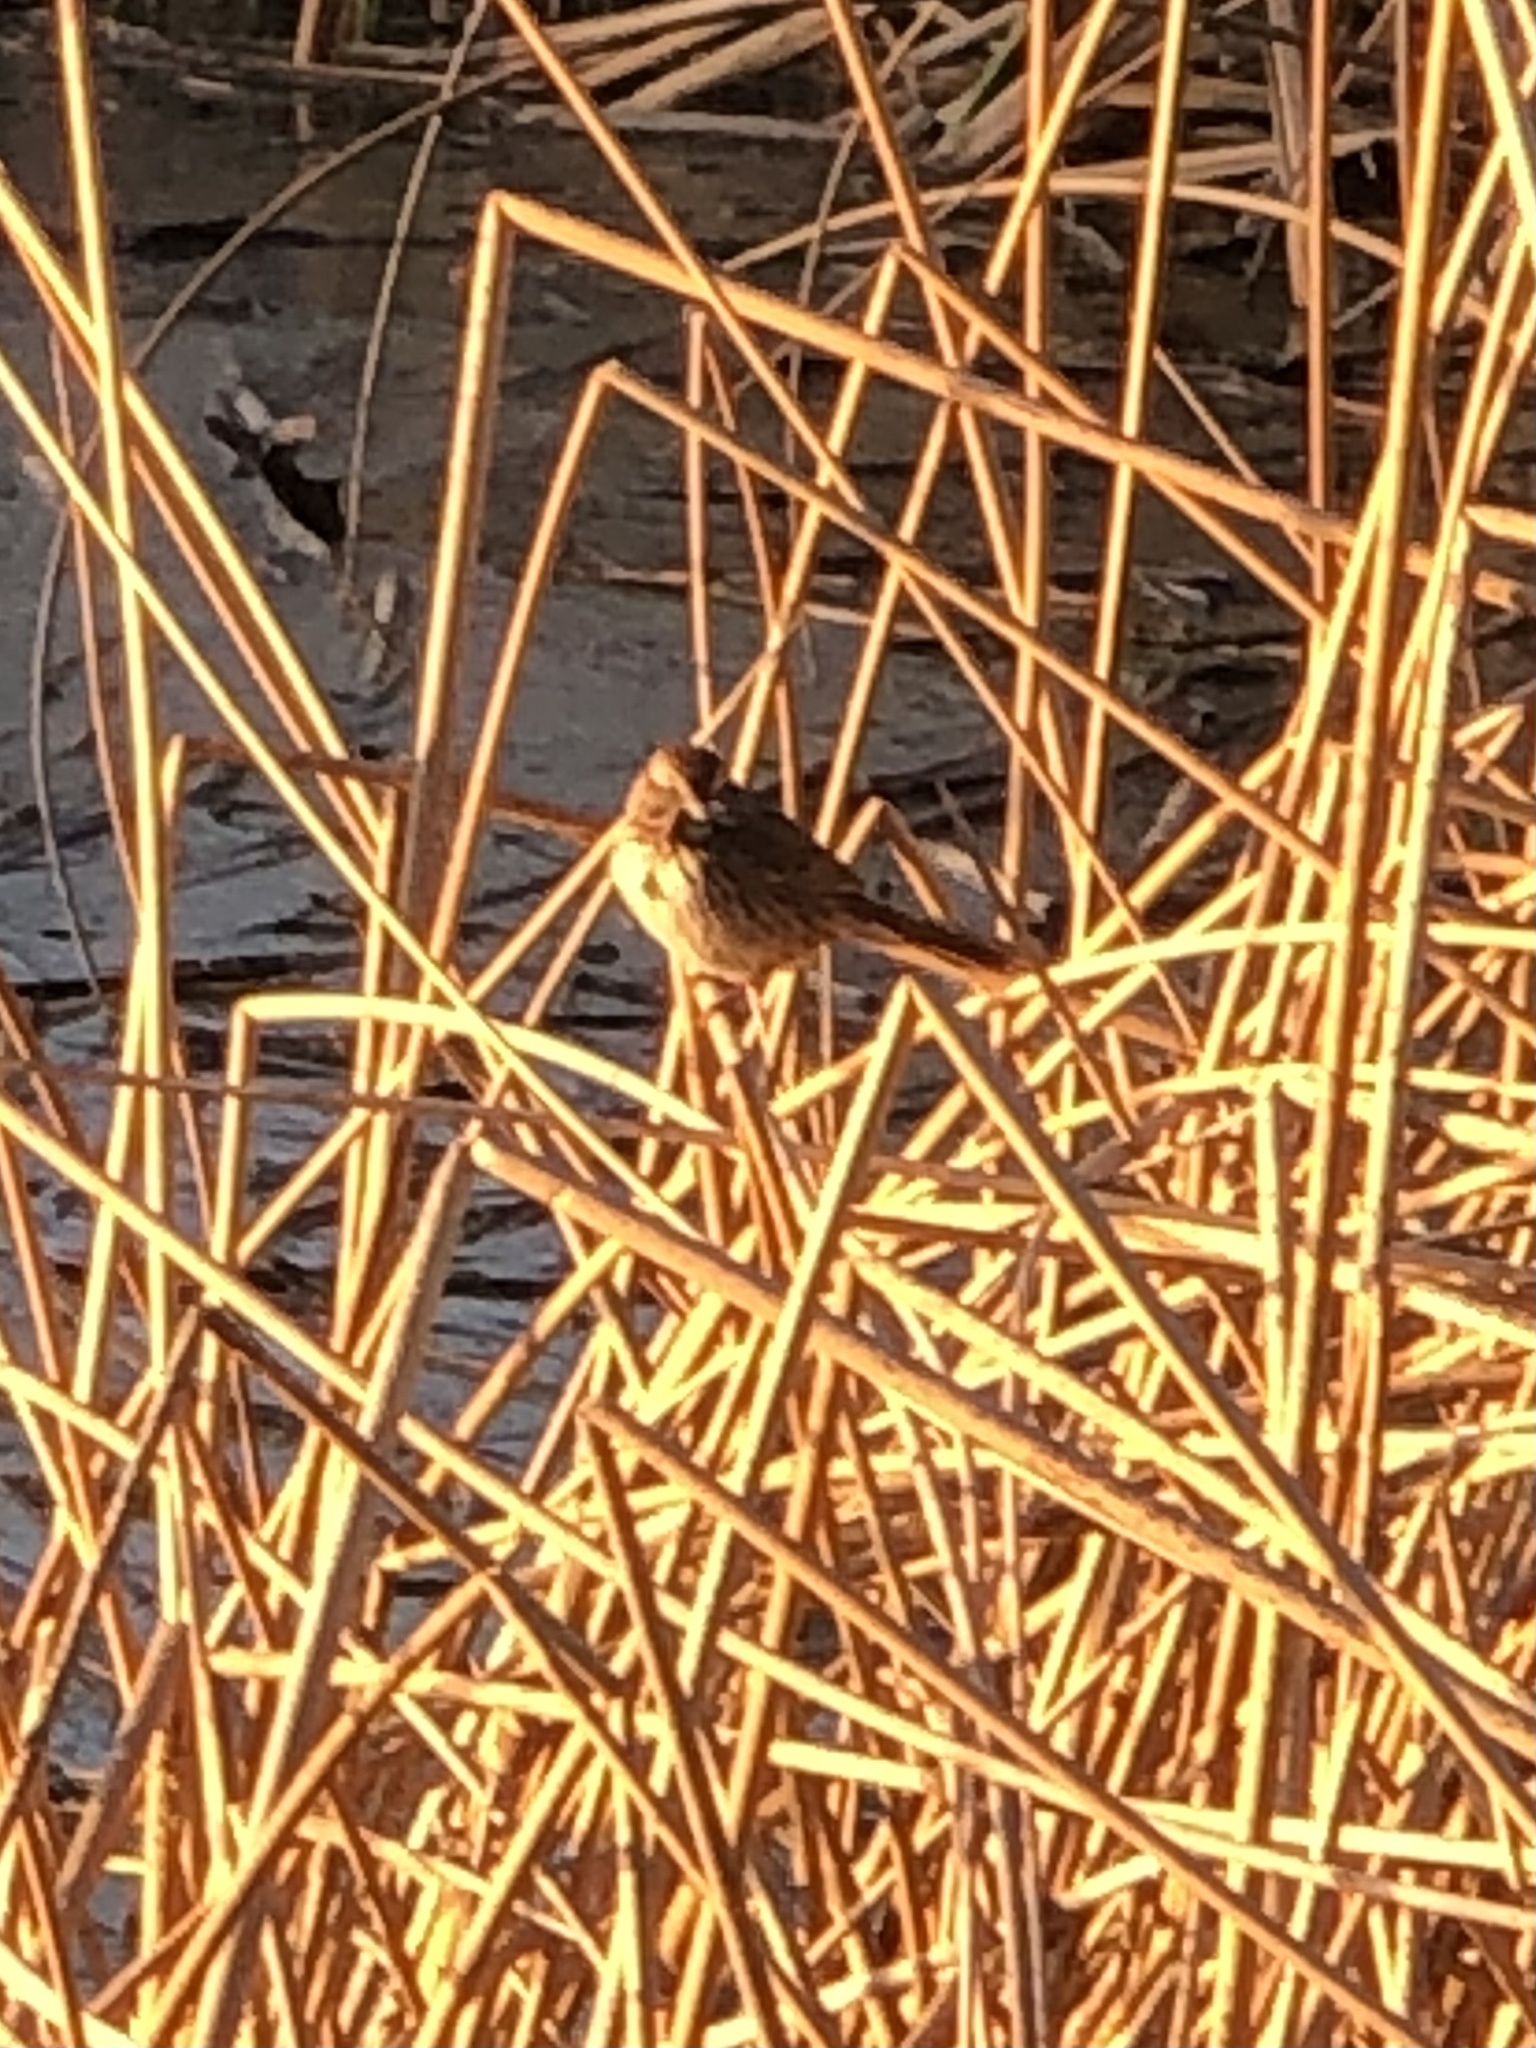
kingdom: Animalia
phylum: Chordata
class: Aves
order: Passeriformes
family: Passerellidae
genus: Melospiza
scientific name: Melospiza melodia
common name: Song sparrow
